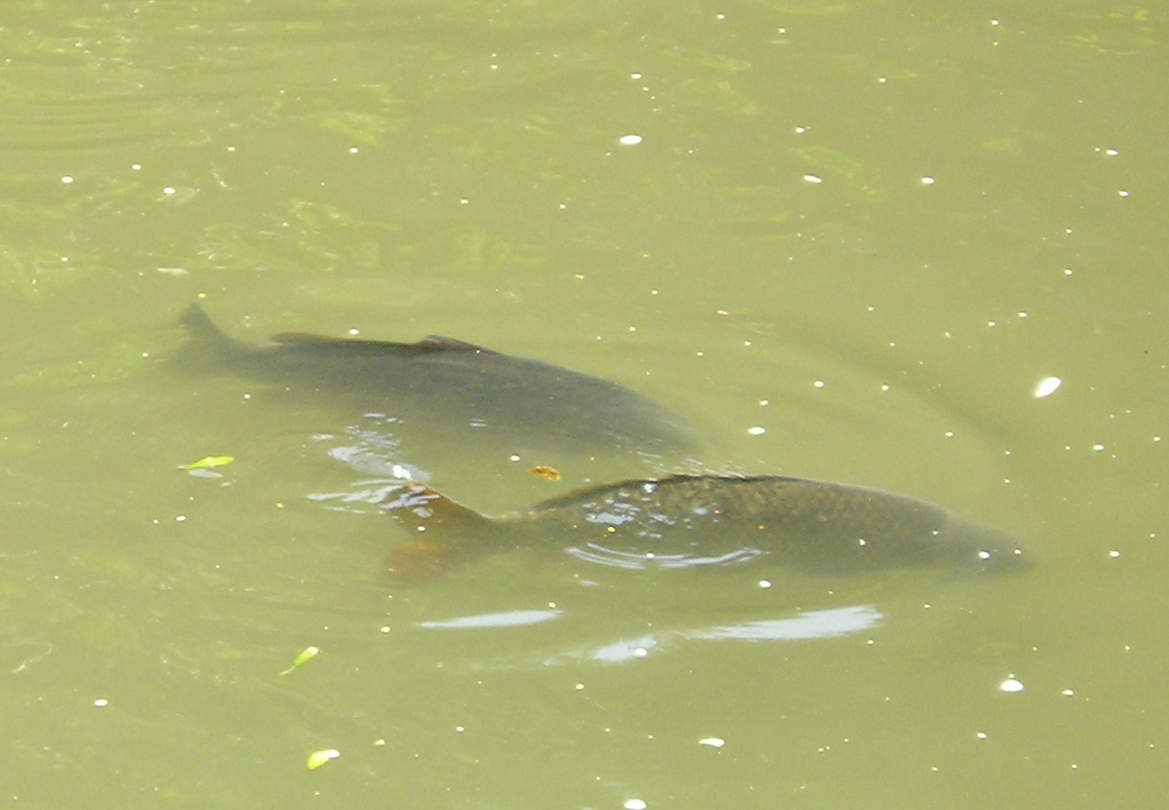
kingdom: Animalia
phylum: Chordata
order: Cypriniformes
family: Cyprinidae
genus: Cyprinus
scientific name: Cyprinus carpio
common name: Common carp
